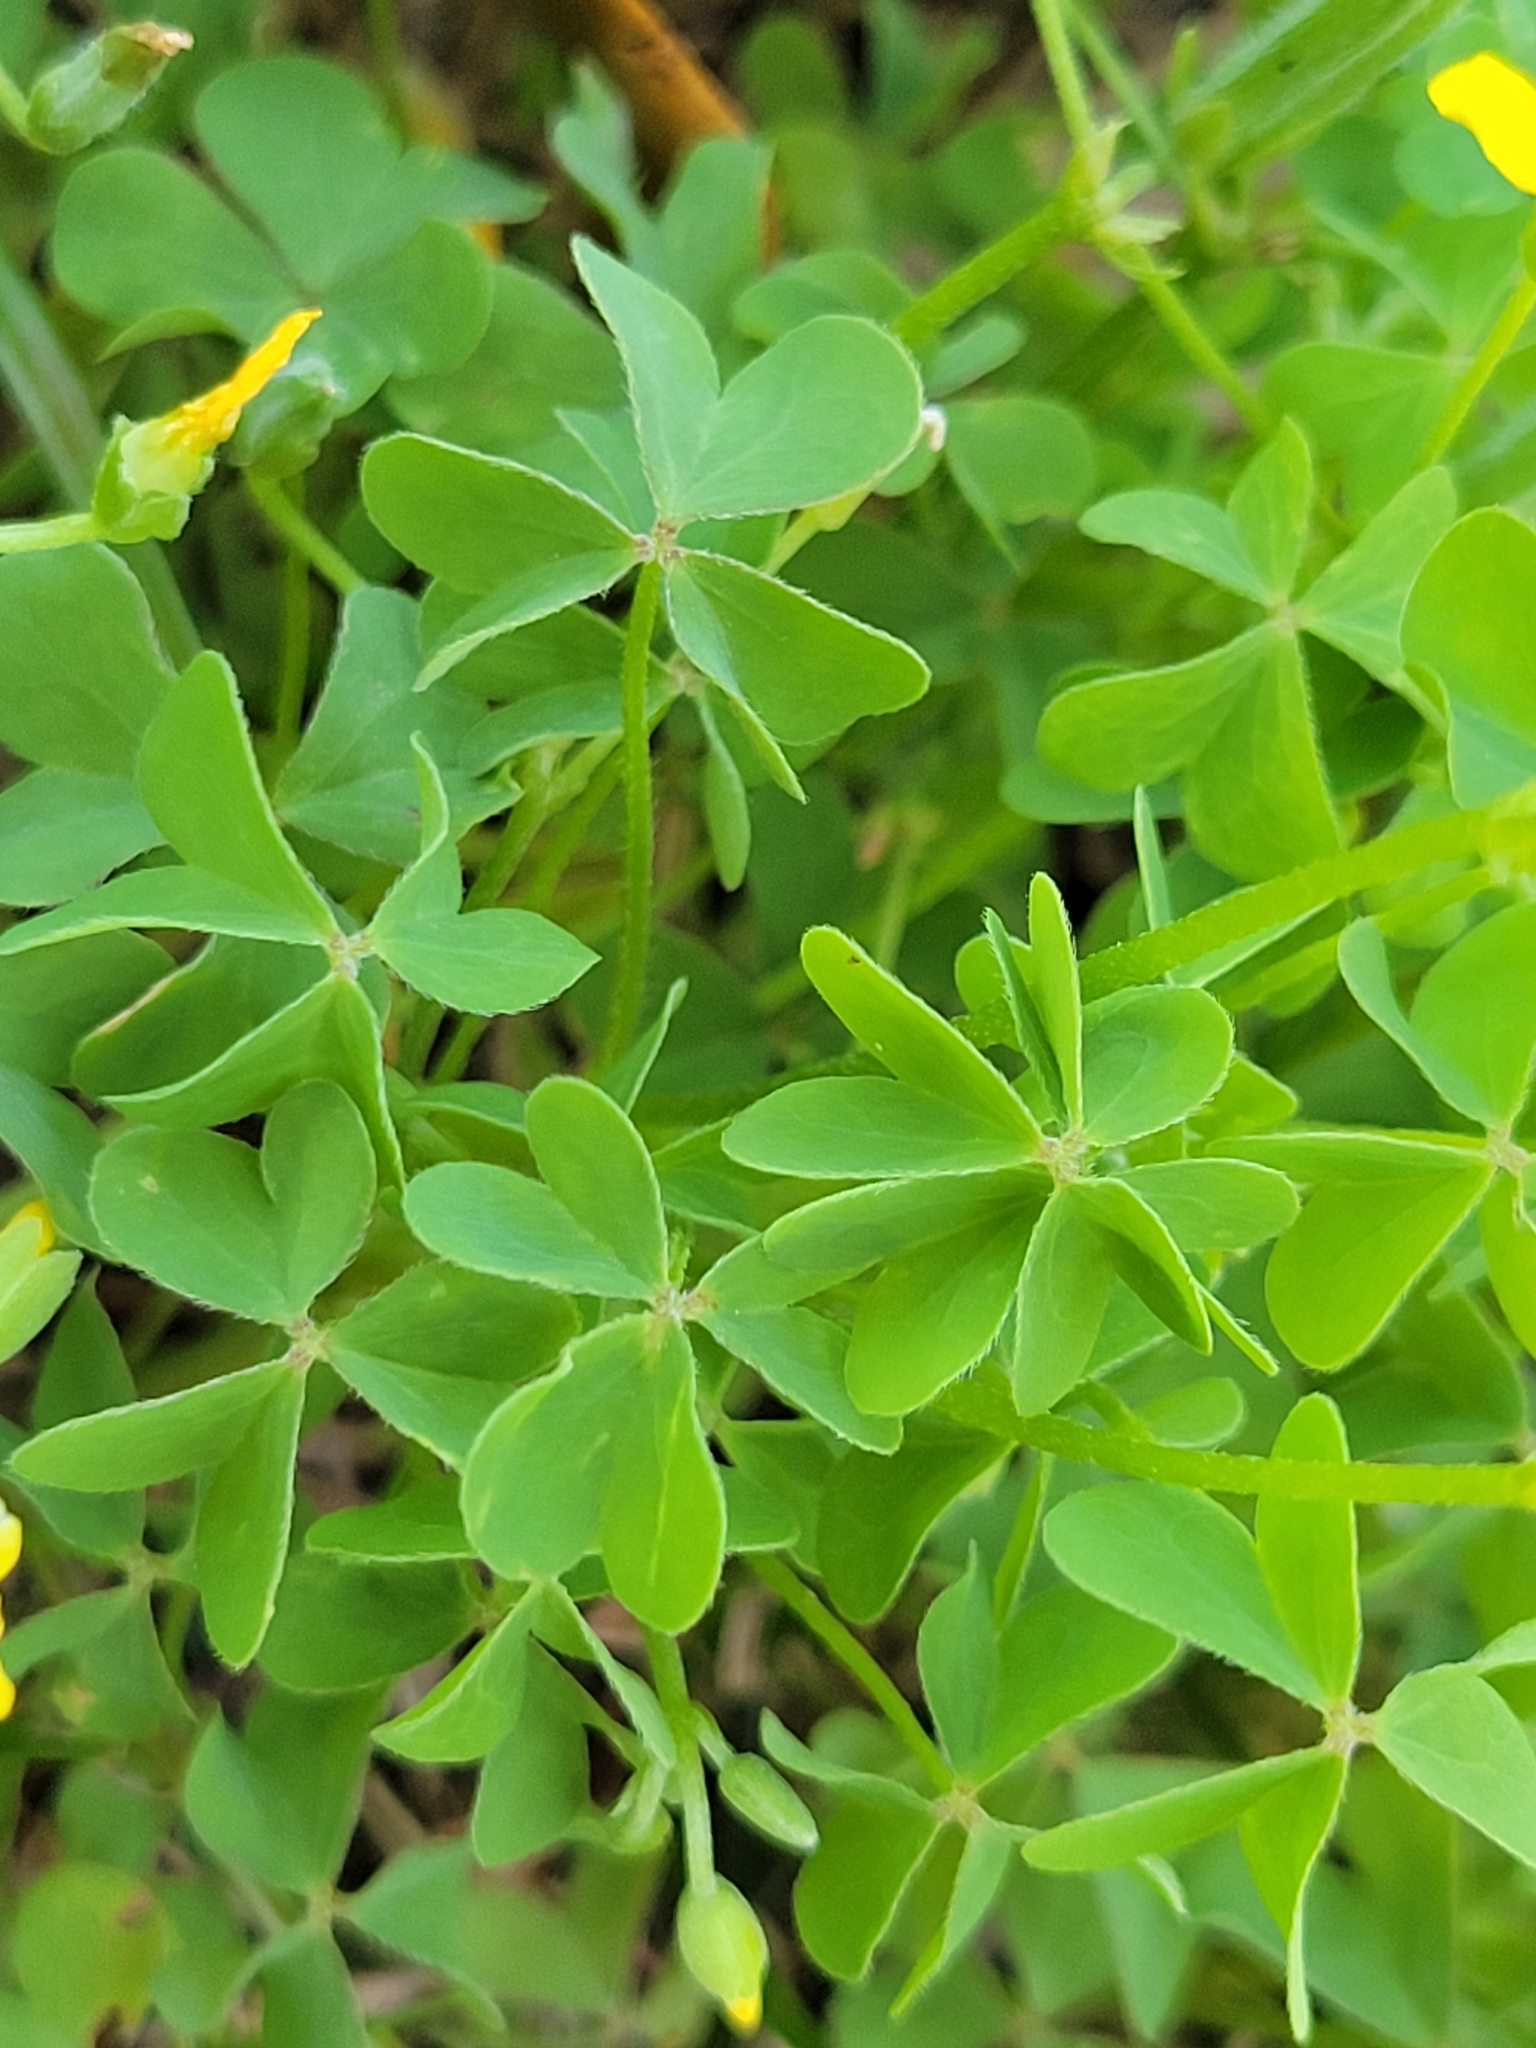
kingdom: Plantae
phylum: Tracheophyta
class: Magnoliopsida
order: Oxalidales
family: Oxalidaceae
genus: Oxalis
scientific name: Oxalis dillenii
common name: Sussex yellow-sorrel
